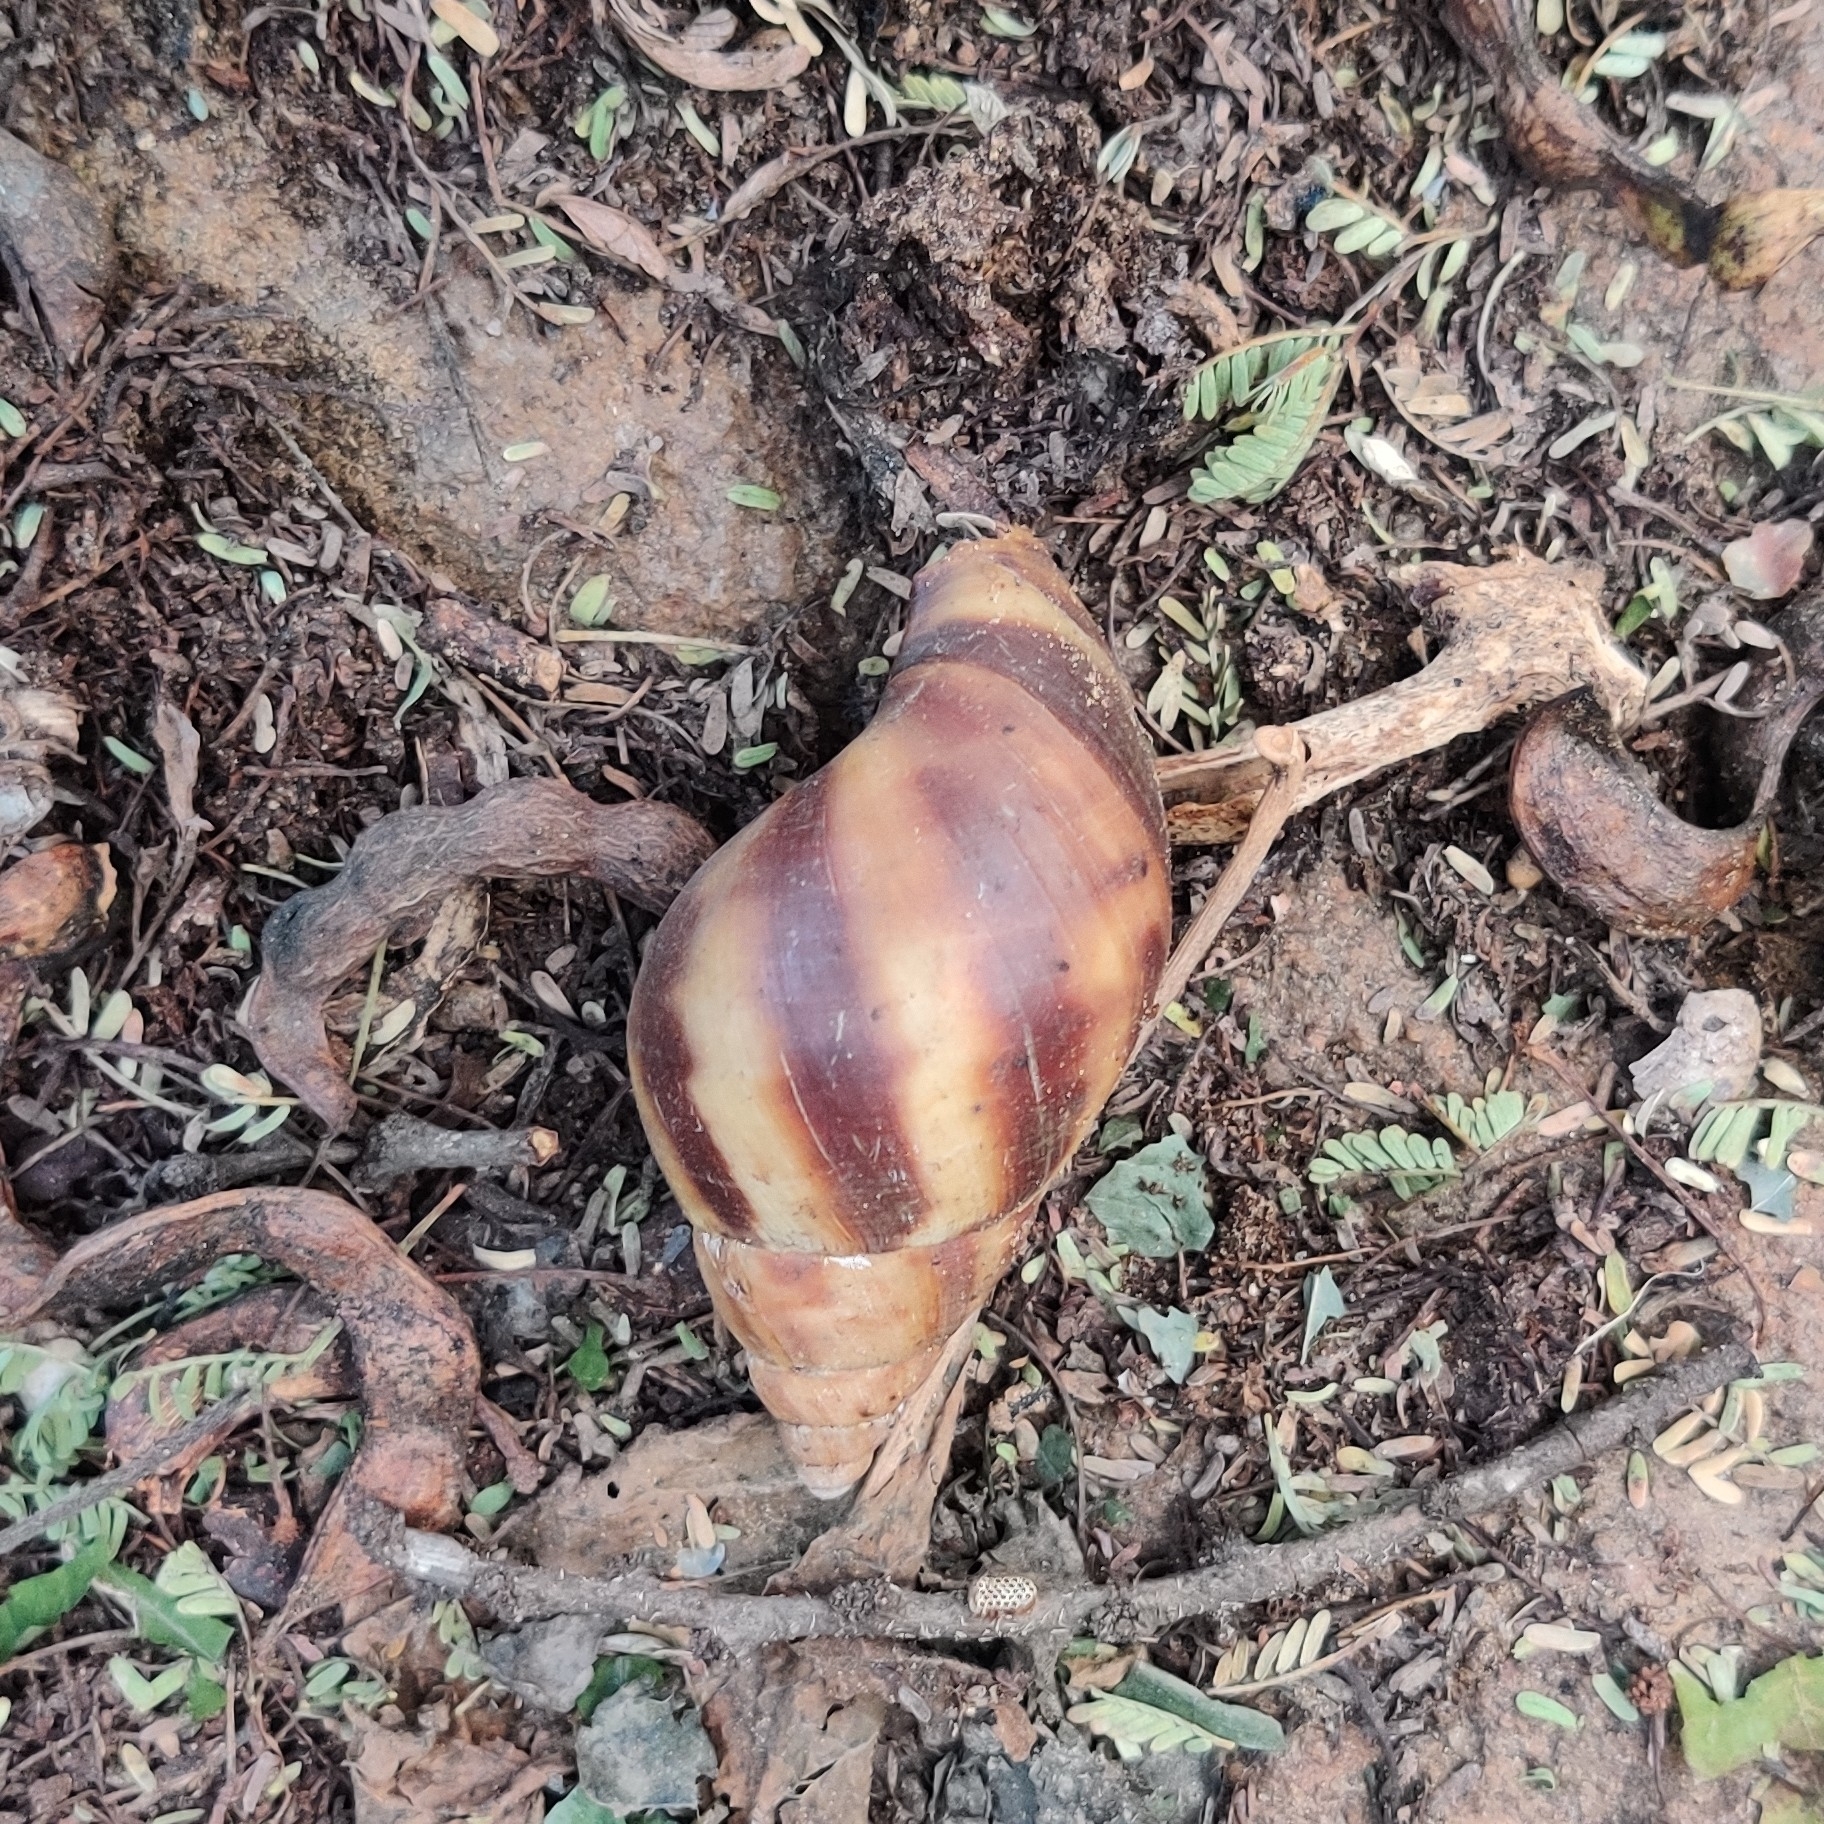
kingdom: Animalia
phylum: Mollusca
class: Gastropoda
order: Stylommatophora
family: Achatinidae
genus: Lissachatina
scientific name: Lissachatina fulica
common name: Giant african snail
